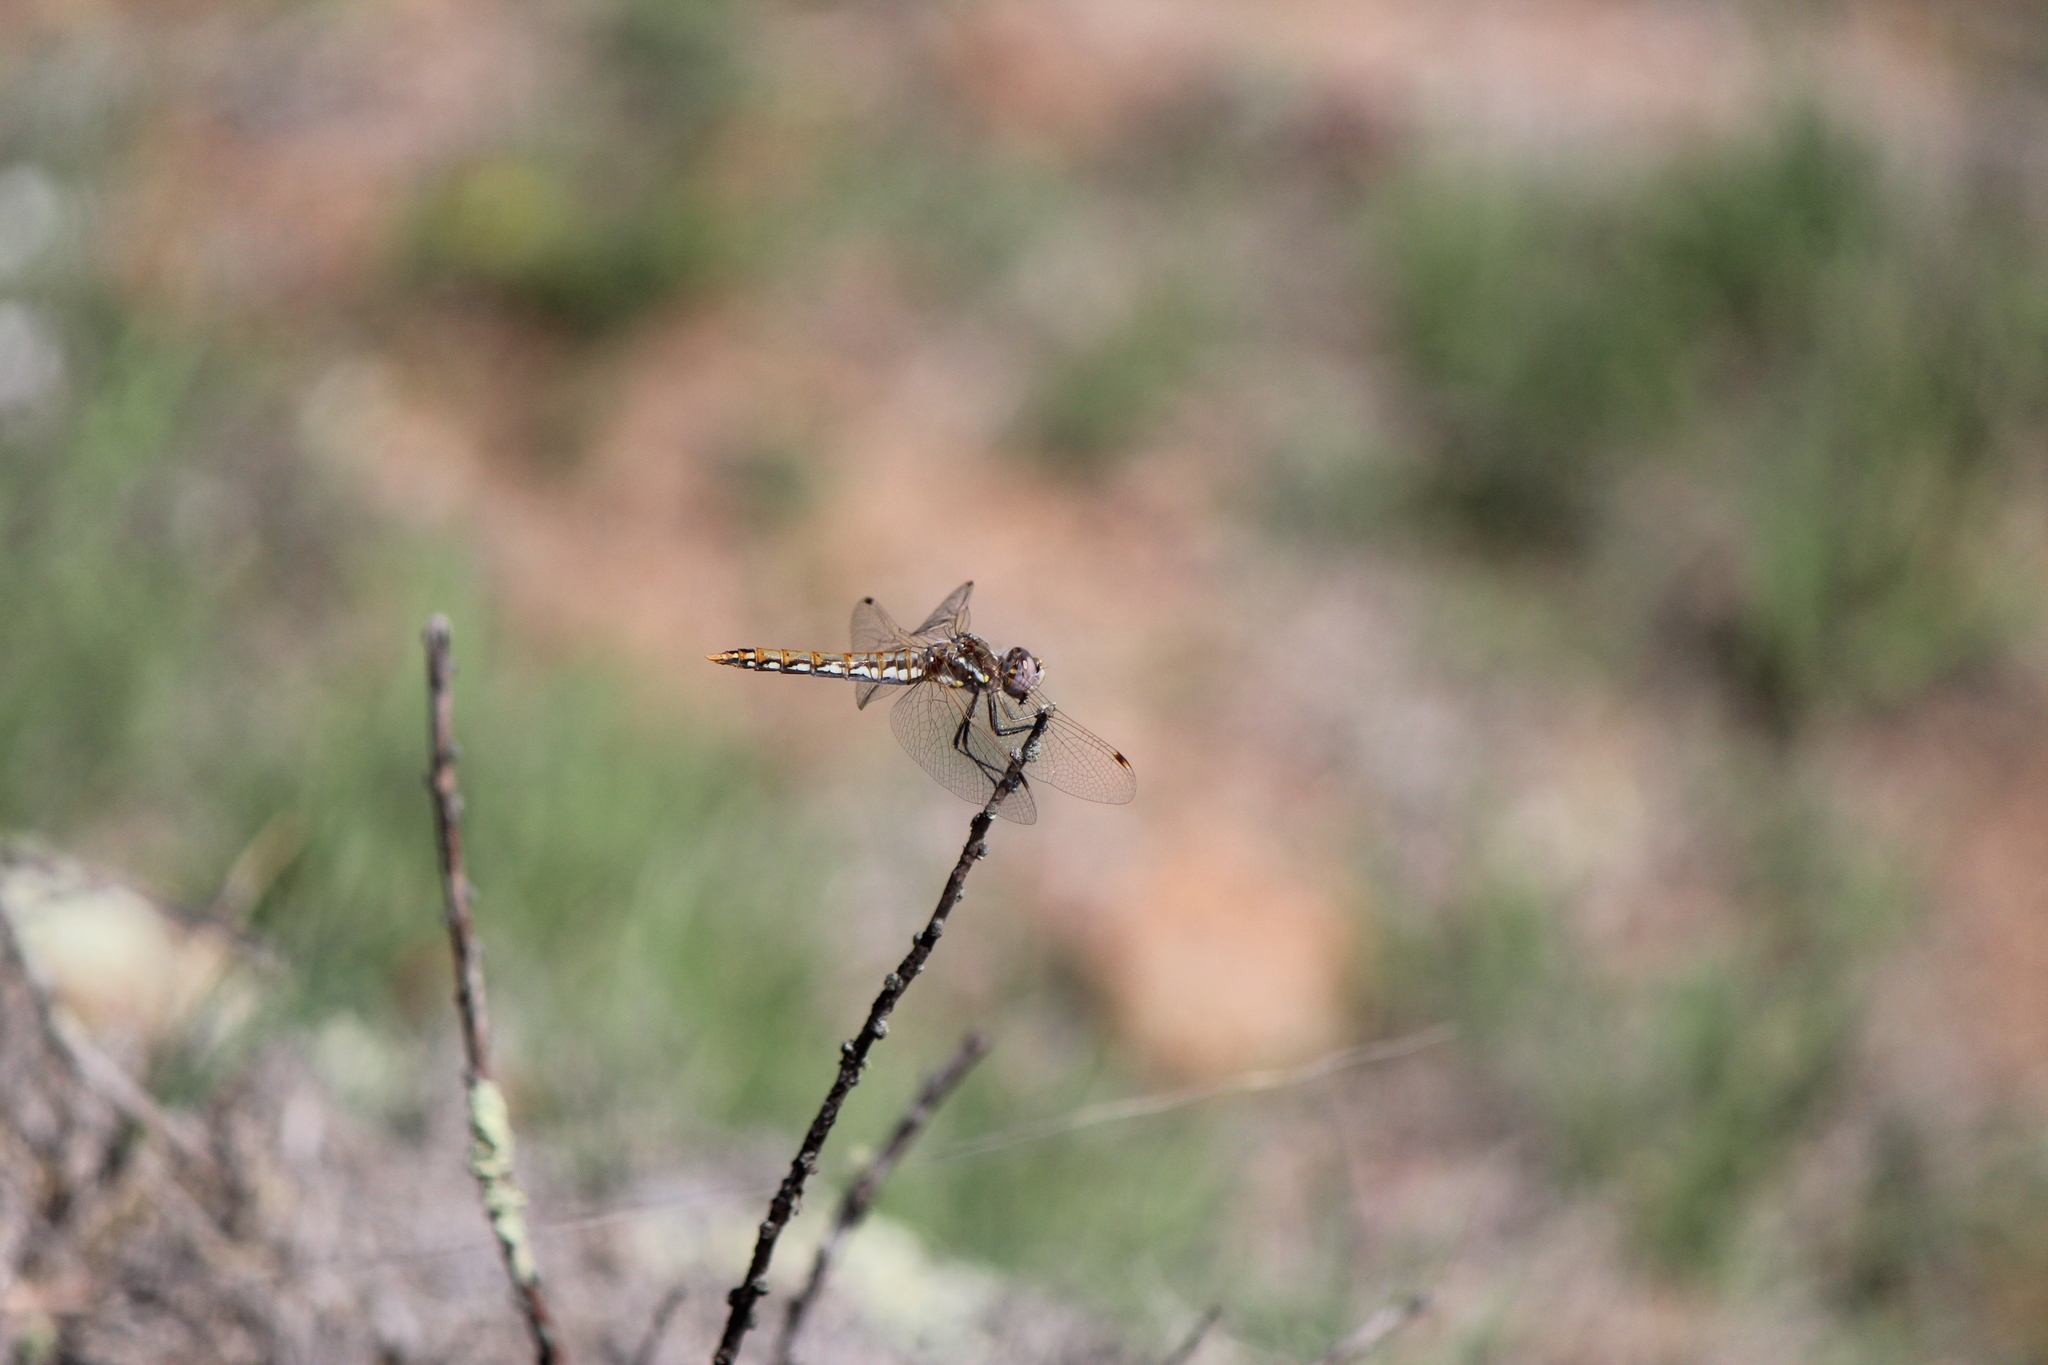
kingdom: Animalia
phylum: Arthropoda
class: Insecta
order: Odonata
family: Libellulidae
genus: Sympetrum
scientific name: Sympetrum corruptum
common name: Variegated meadowhawk
